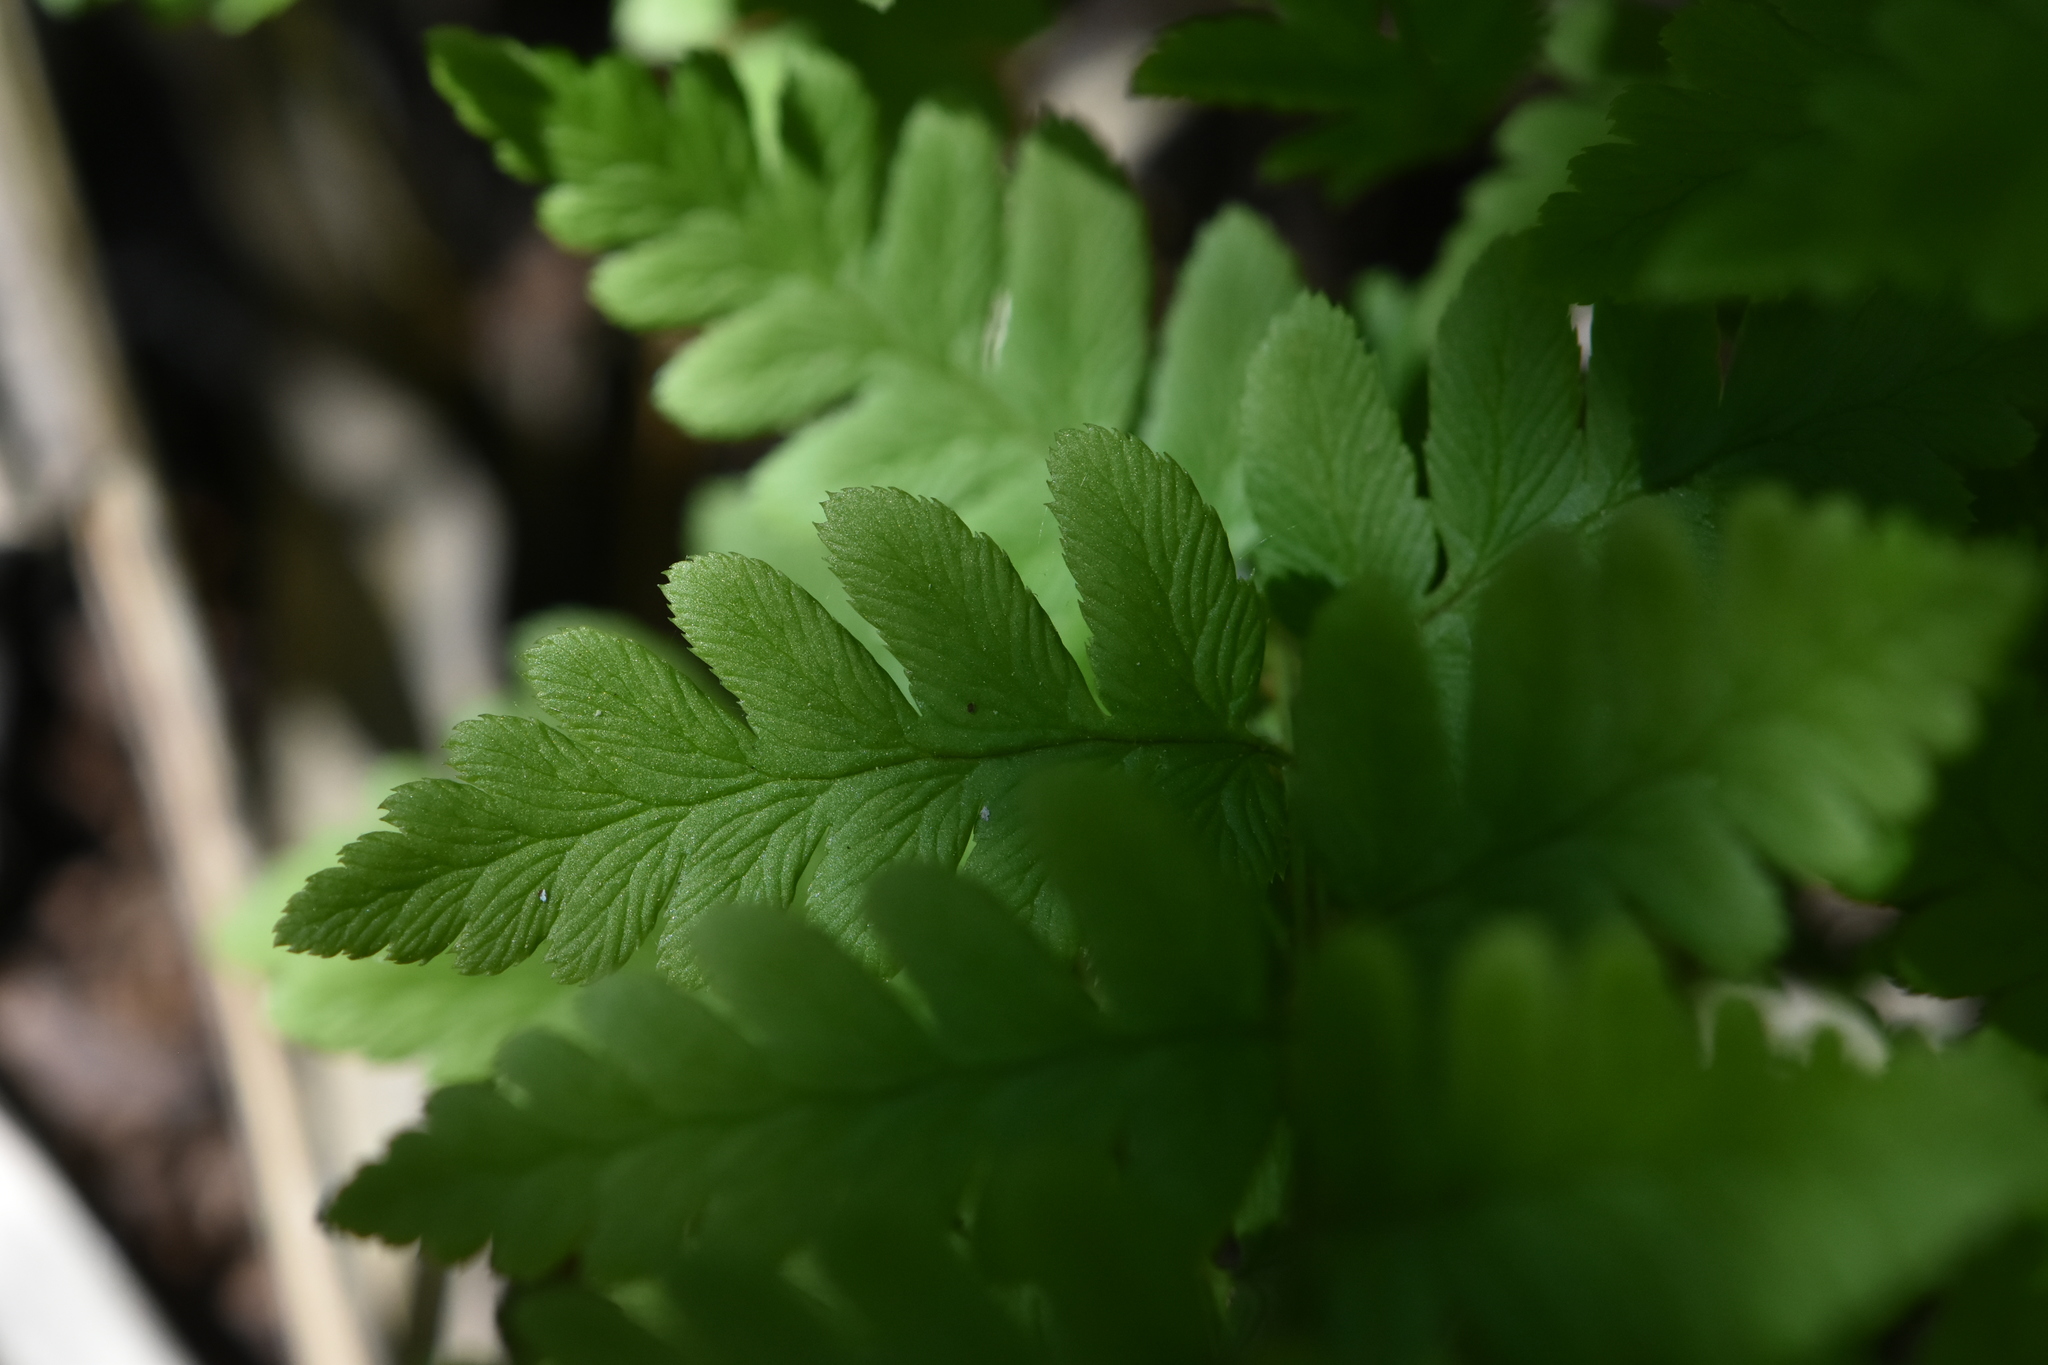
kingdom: Plantae
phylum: Tracheophyta
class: Polypodiopsida
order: Polypodiales
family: Dryopteridaceae
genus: Dryopteris
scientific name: Dryopteris cristata
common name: Crested wood fern
